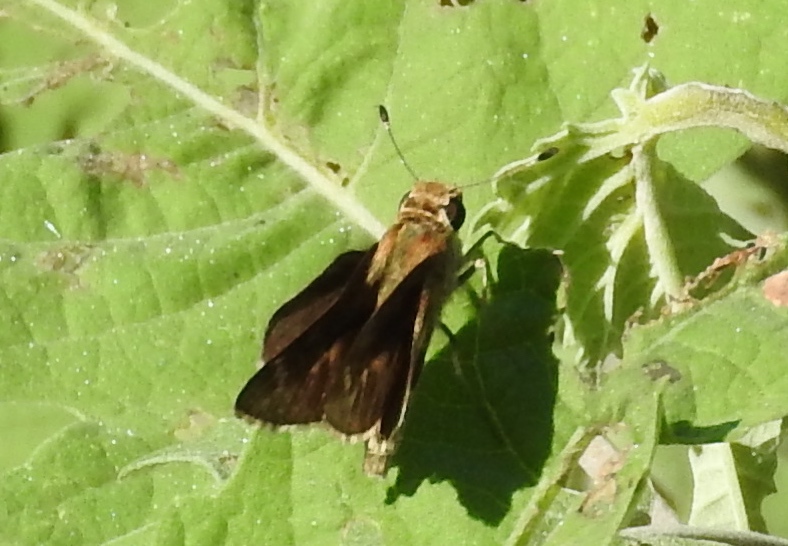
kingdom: Animalia
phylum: Arthropoda
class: Insecta
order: Lepidoptera
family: Hesperiidae
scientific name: Hesperiidae
